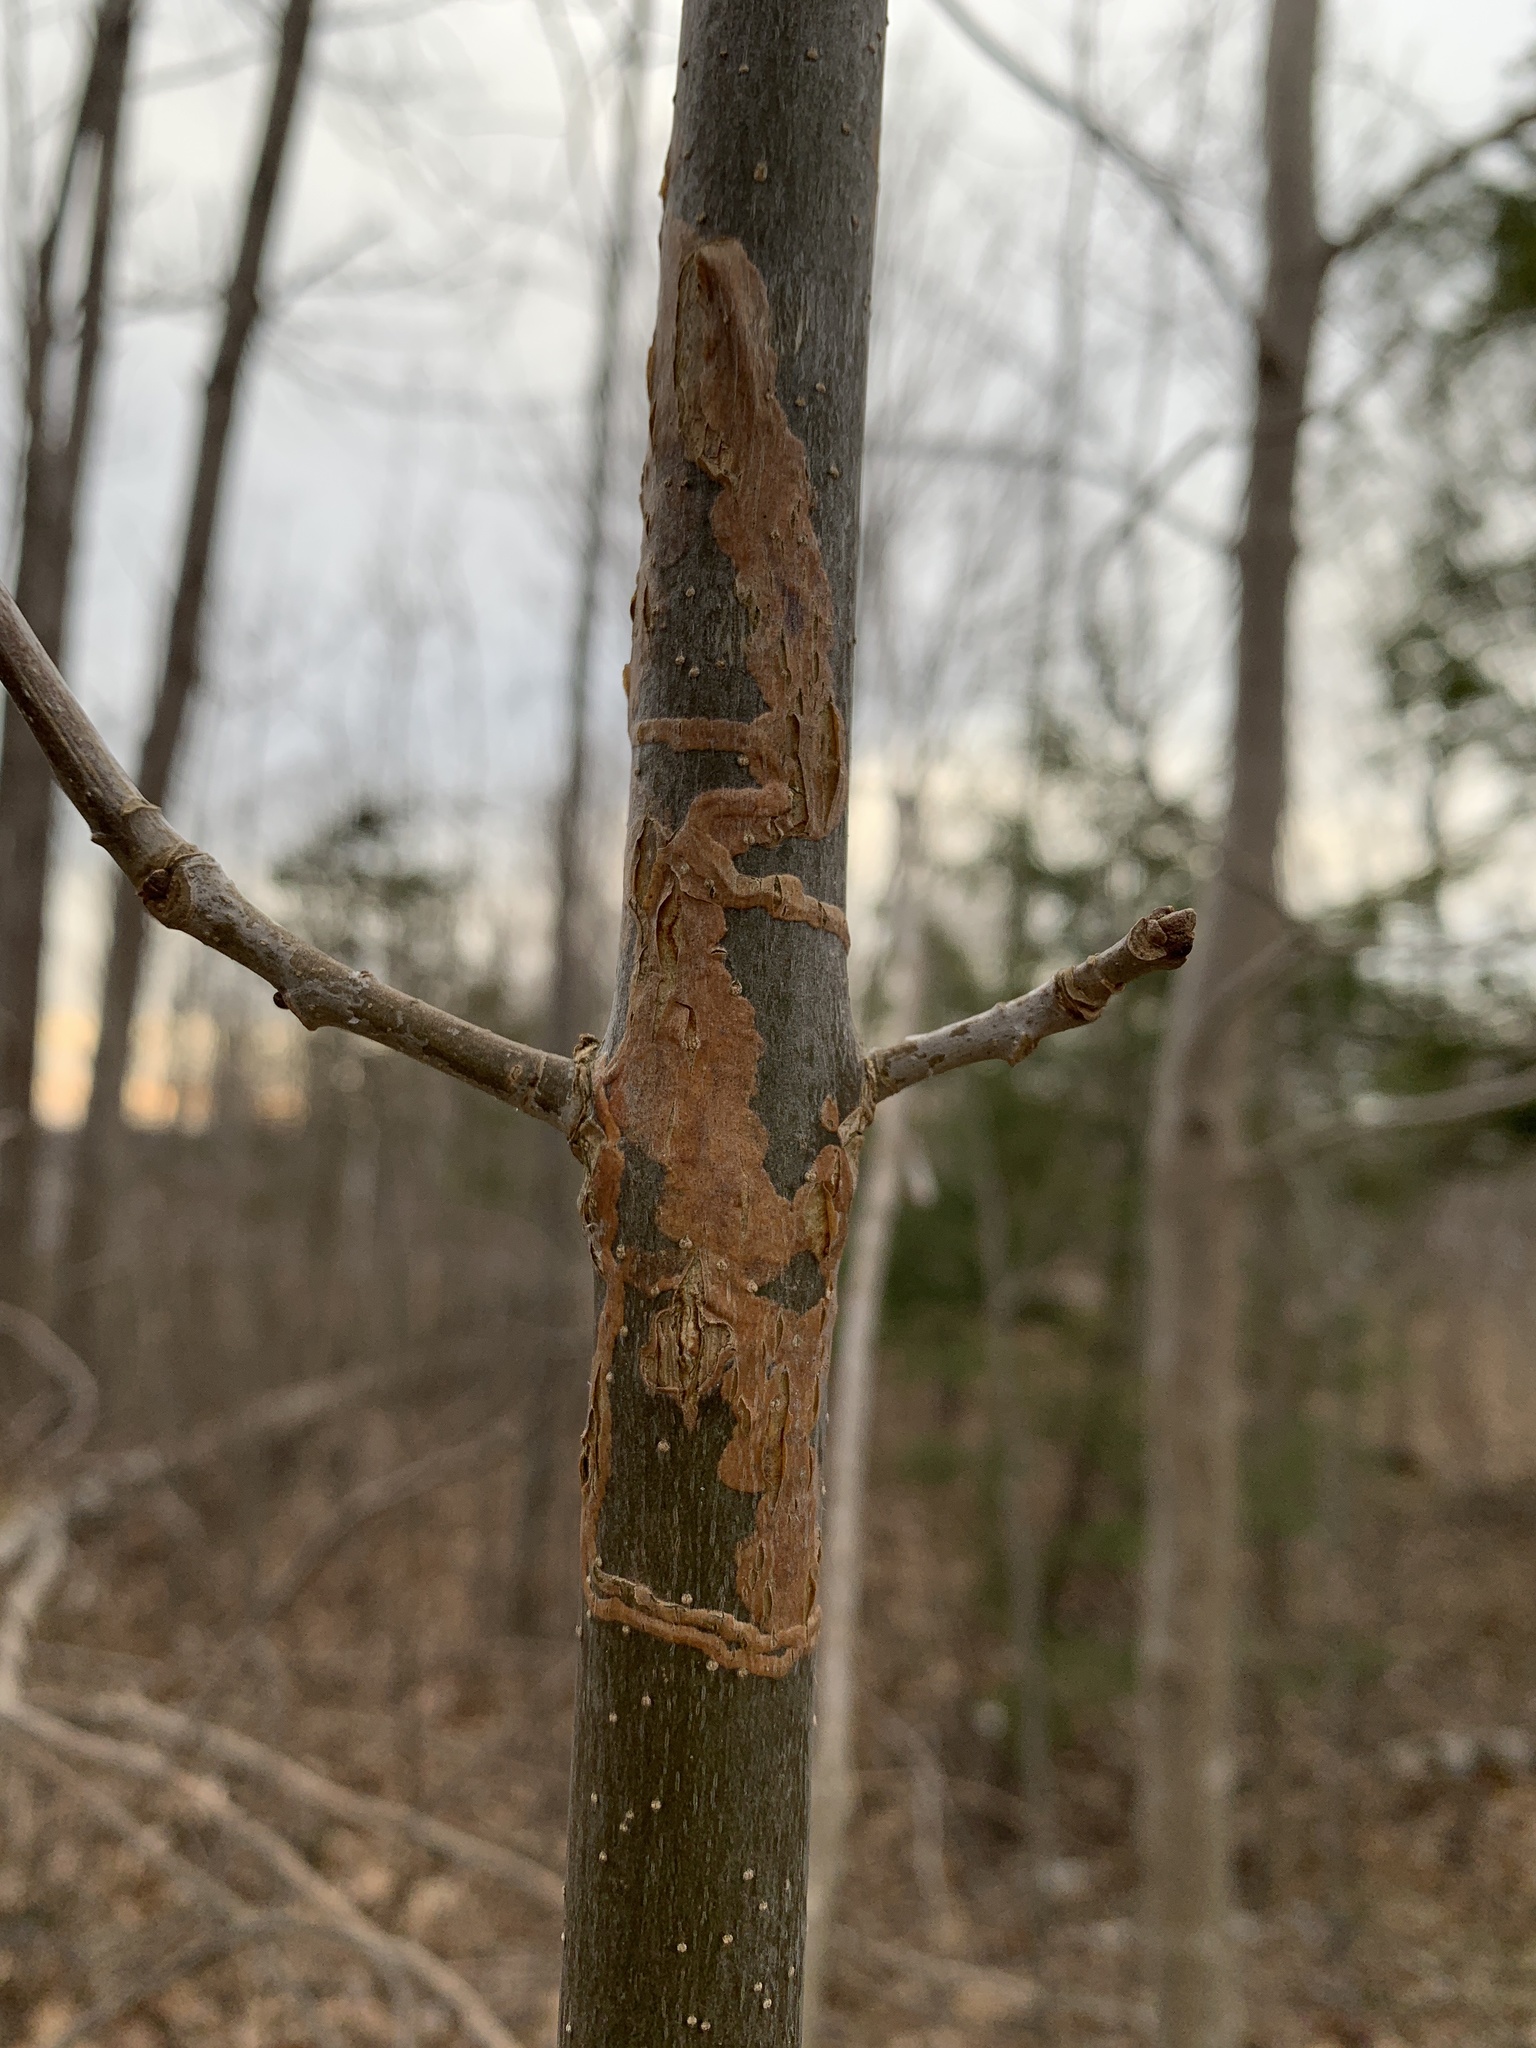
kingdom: Animalia
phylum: Arthropoda
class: Insecta
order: Lepidoptera
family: Gracillariidae
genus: Marmara
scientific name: Marmara fraxinicola
